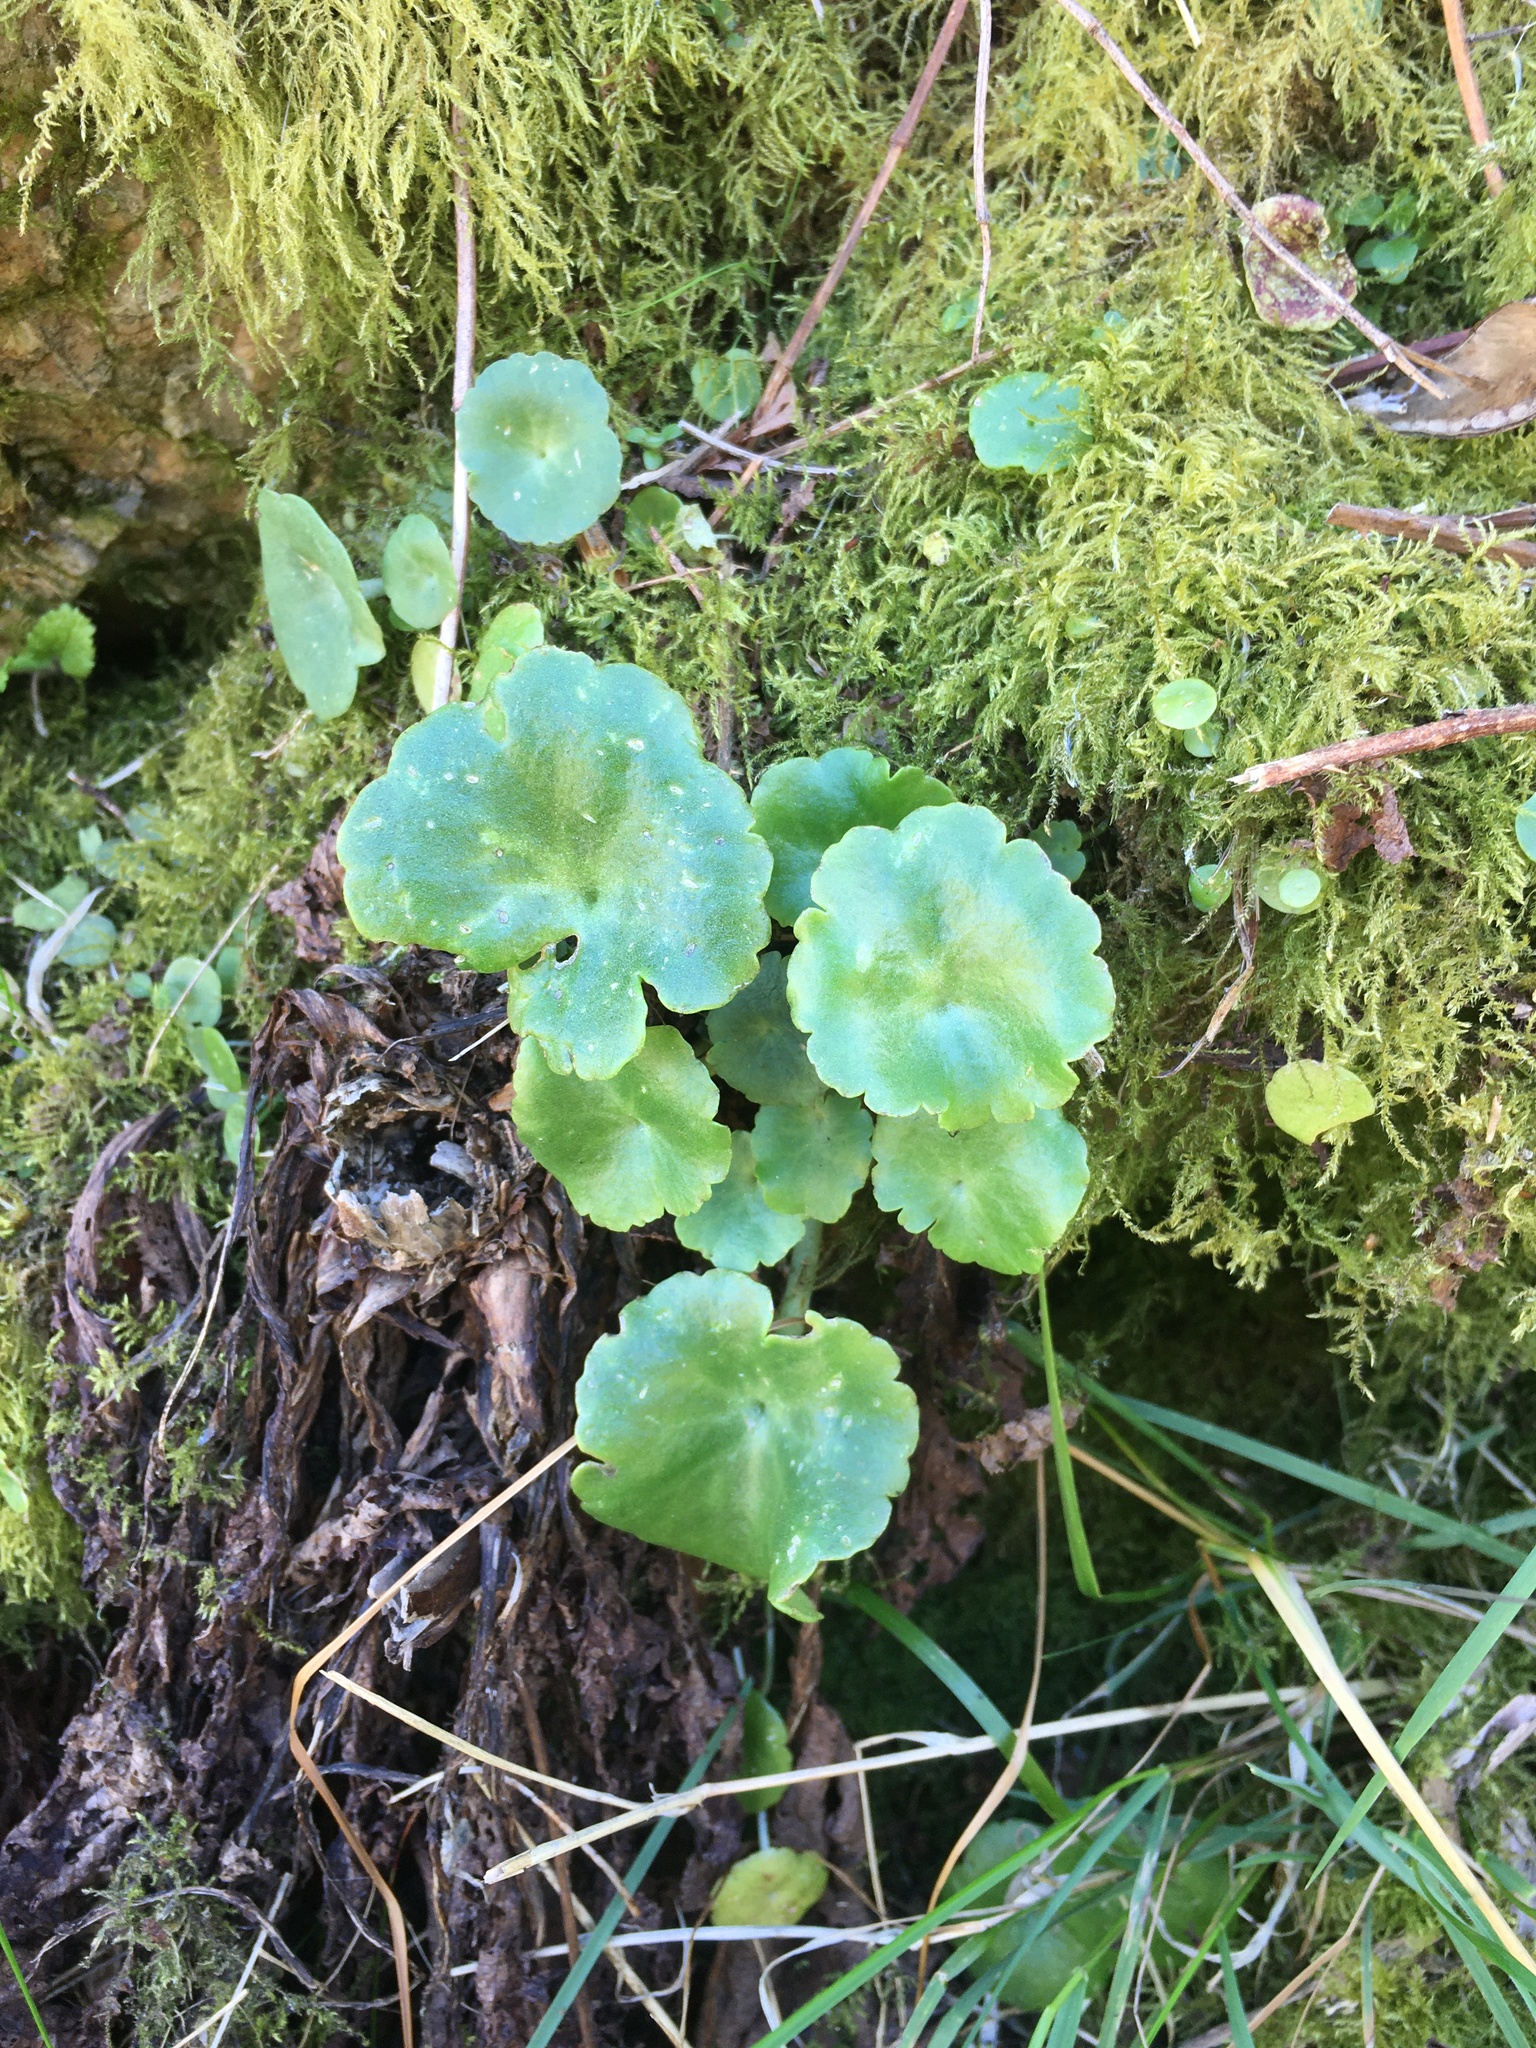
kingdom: Plantae
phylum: Tracheophyta
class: Magnoliopsida
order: Saxifragales
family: Crassulaceae
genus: Umbilicus
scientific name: Umbilicus rupestris
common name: Navelwort
